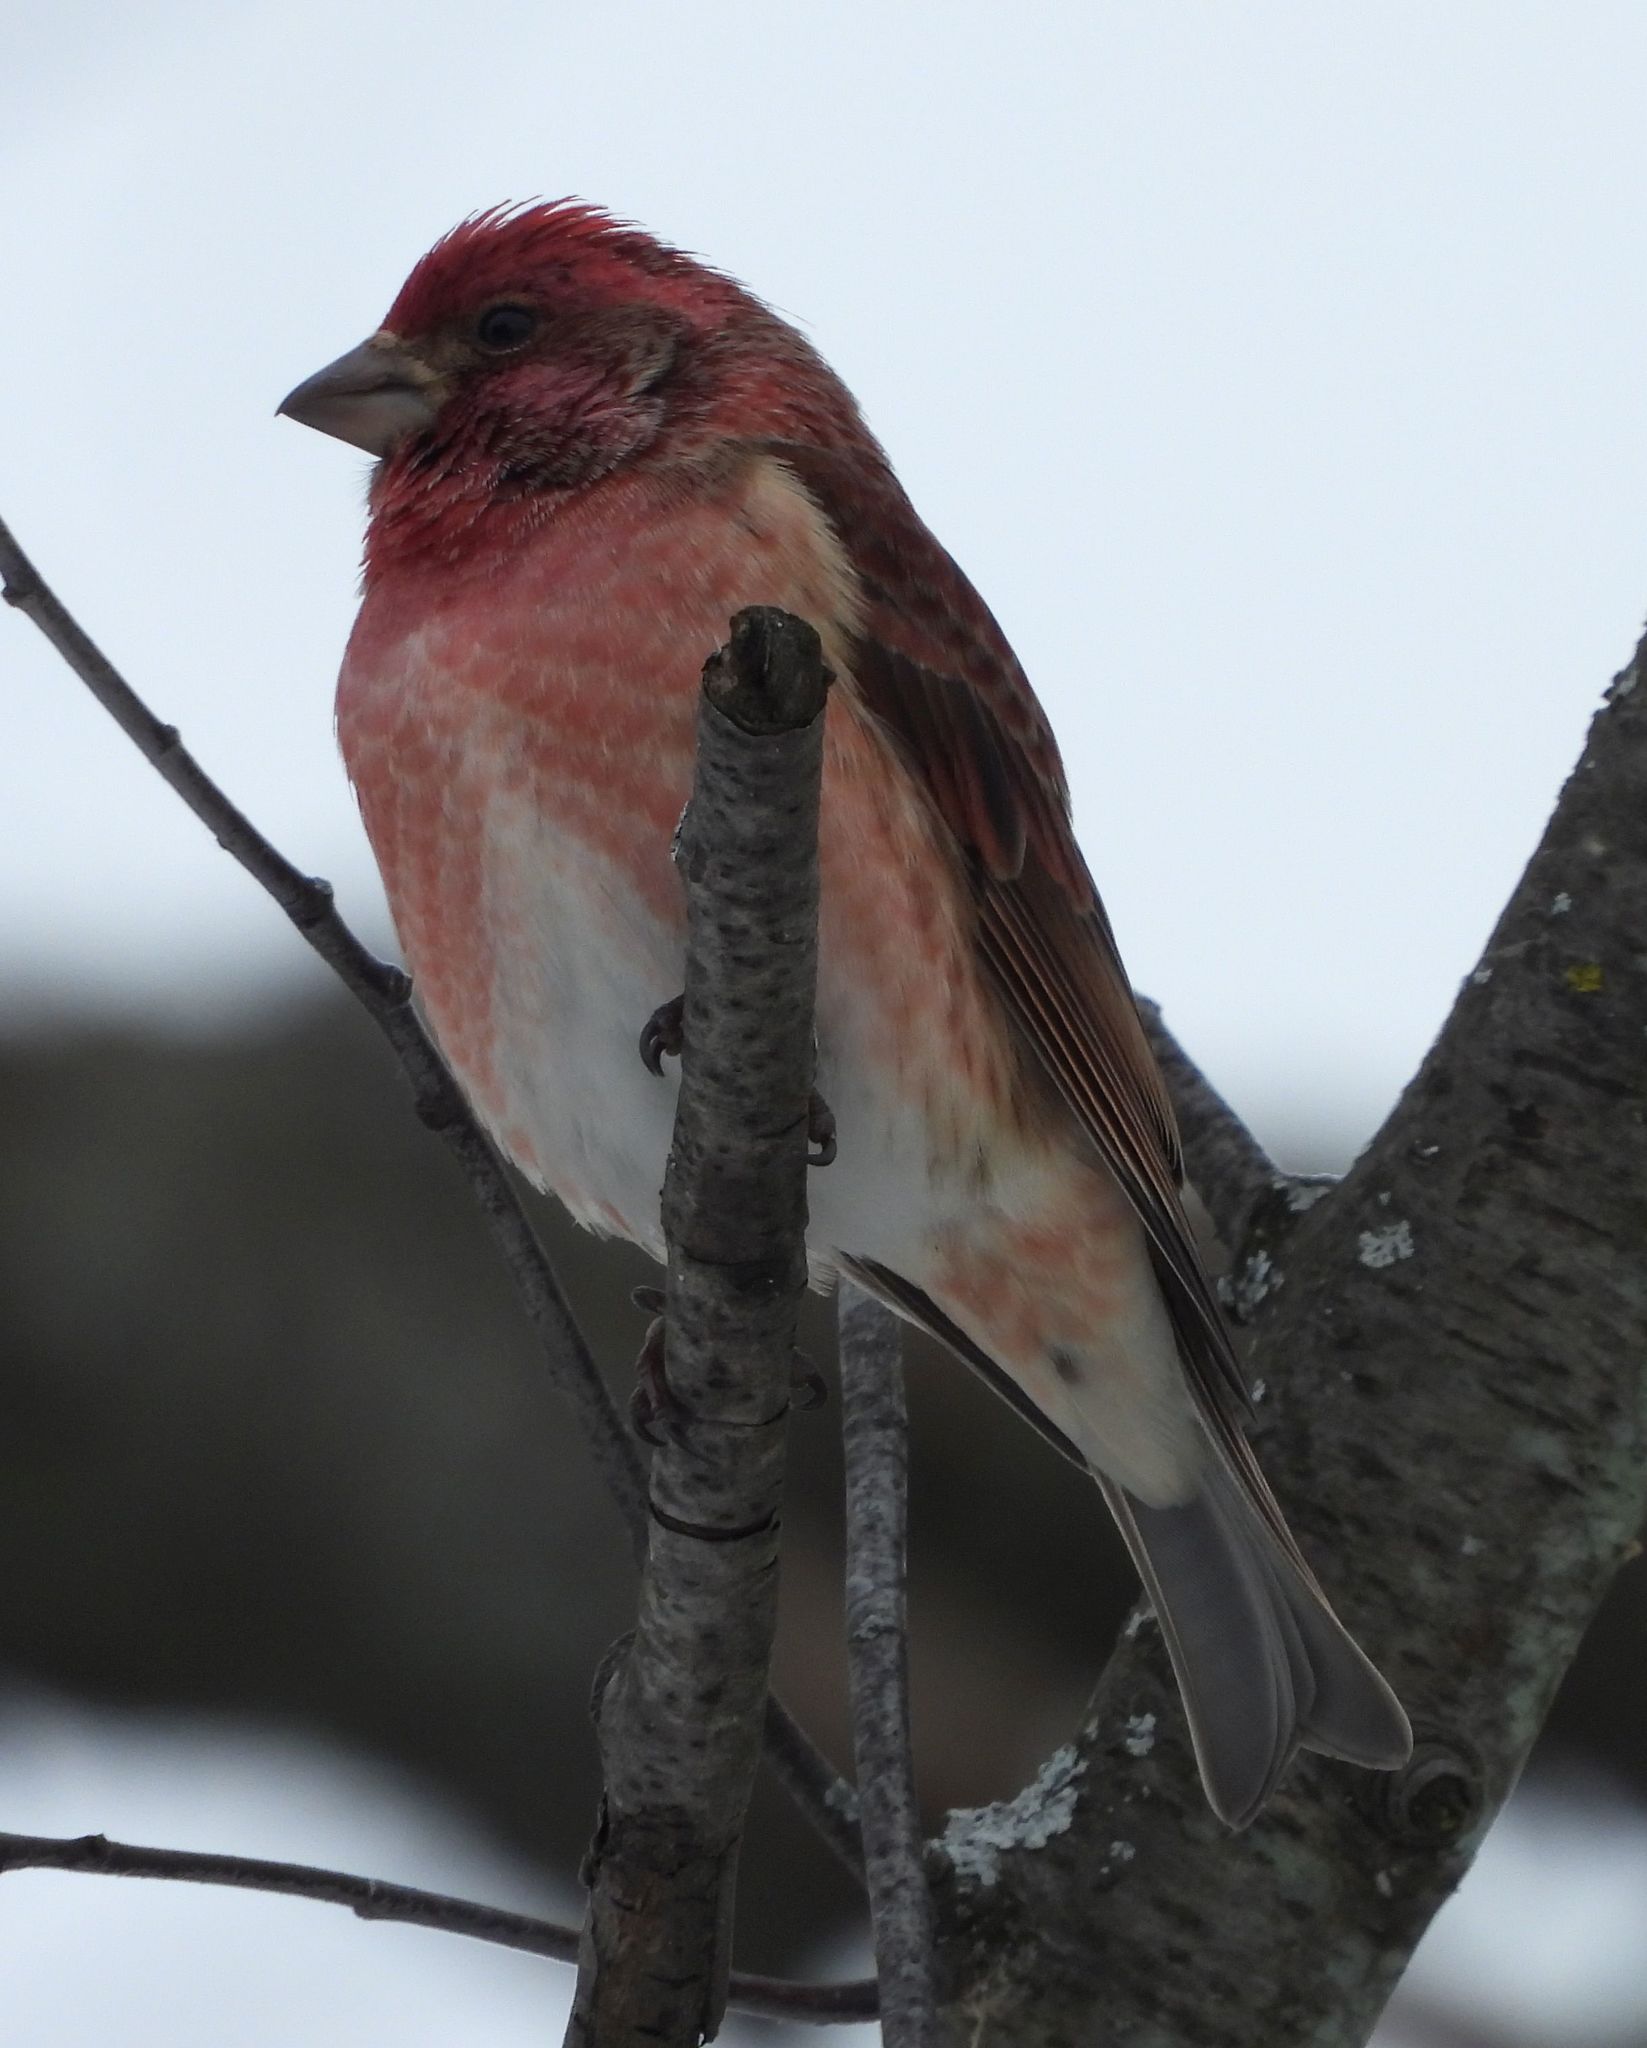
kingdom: Animalia
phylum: Chordata
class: Aves
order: Passeriformes
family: Fringillidae
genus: Haemorhous
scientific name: Haemorhous purpureus
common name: Purple finch
